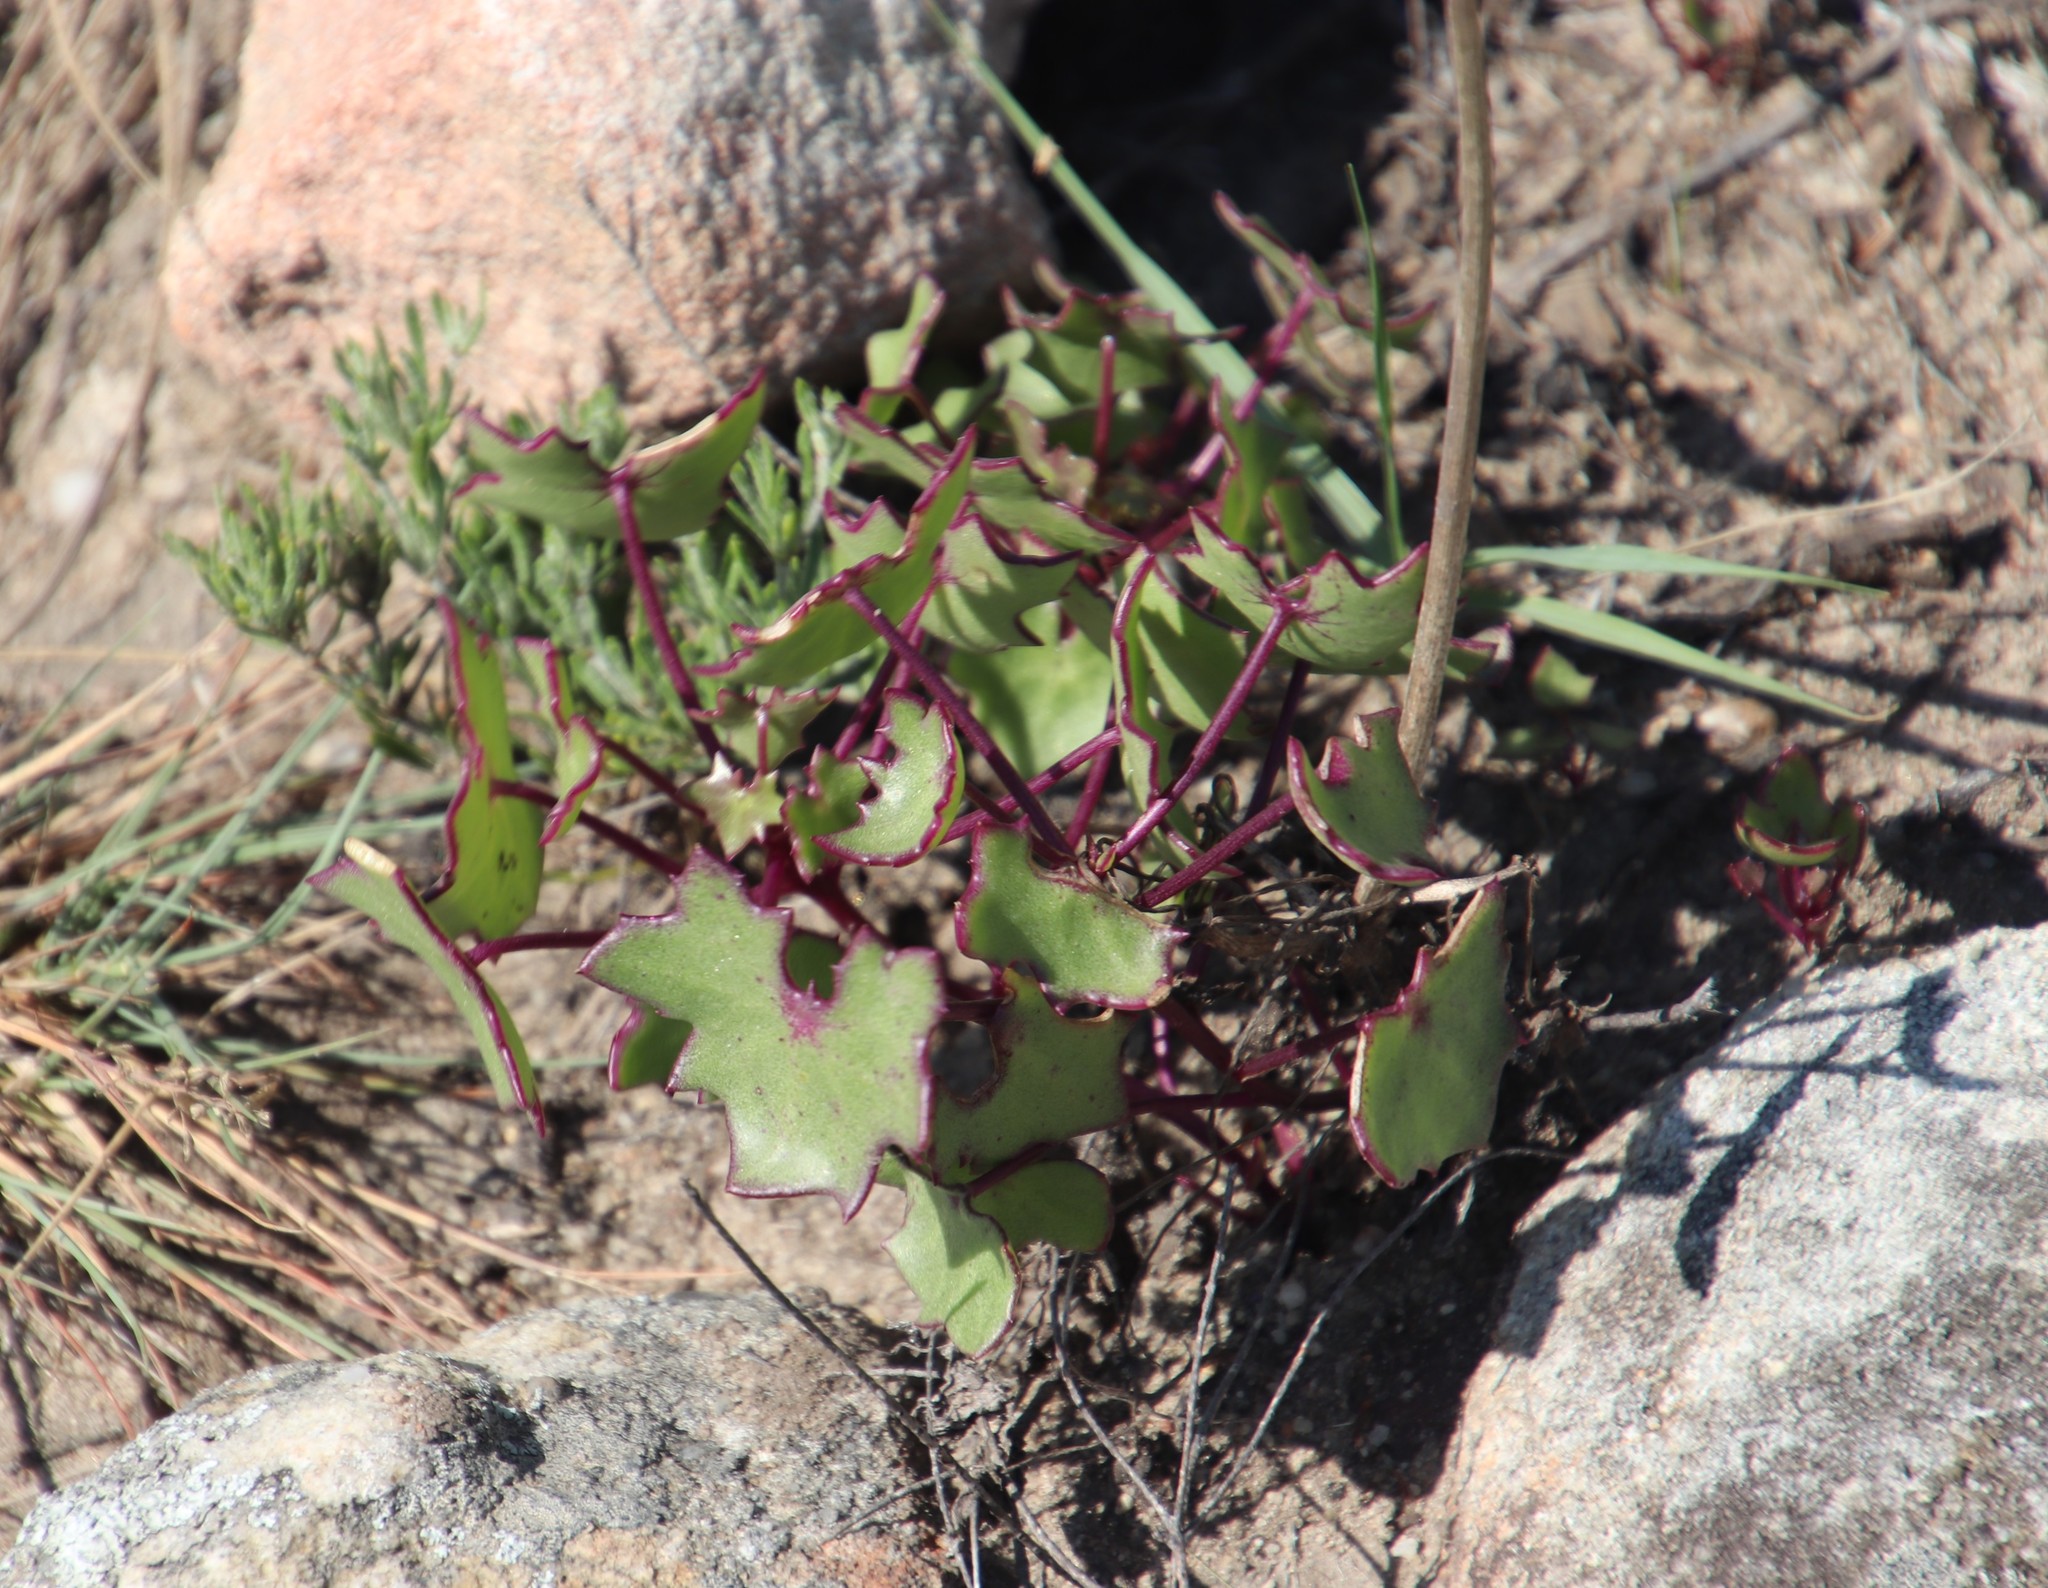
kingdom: Plantae
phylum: Tracheophyta
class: Magnoliopsida
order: Asterales
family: Asteraceae
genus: Senecio
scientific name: Senecio oxyriifolius
